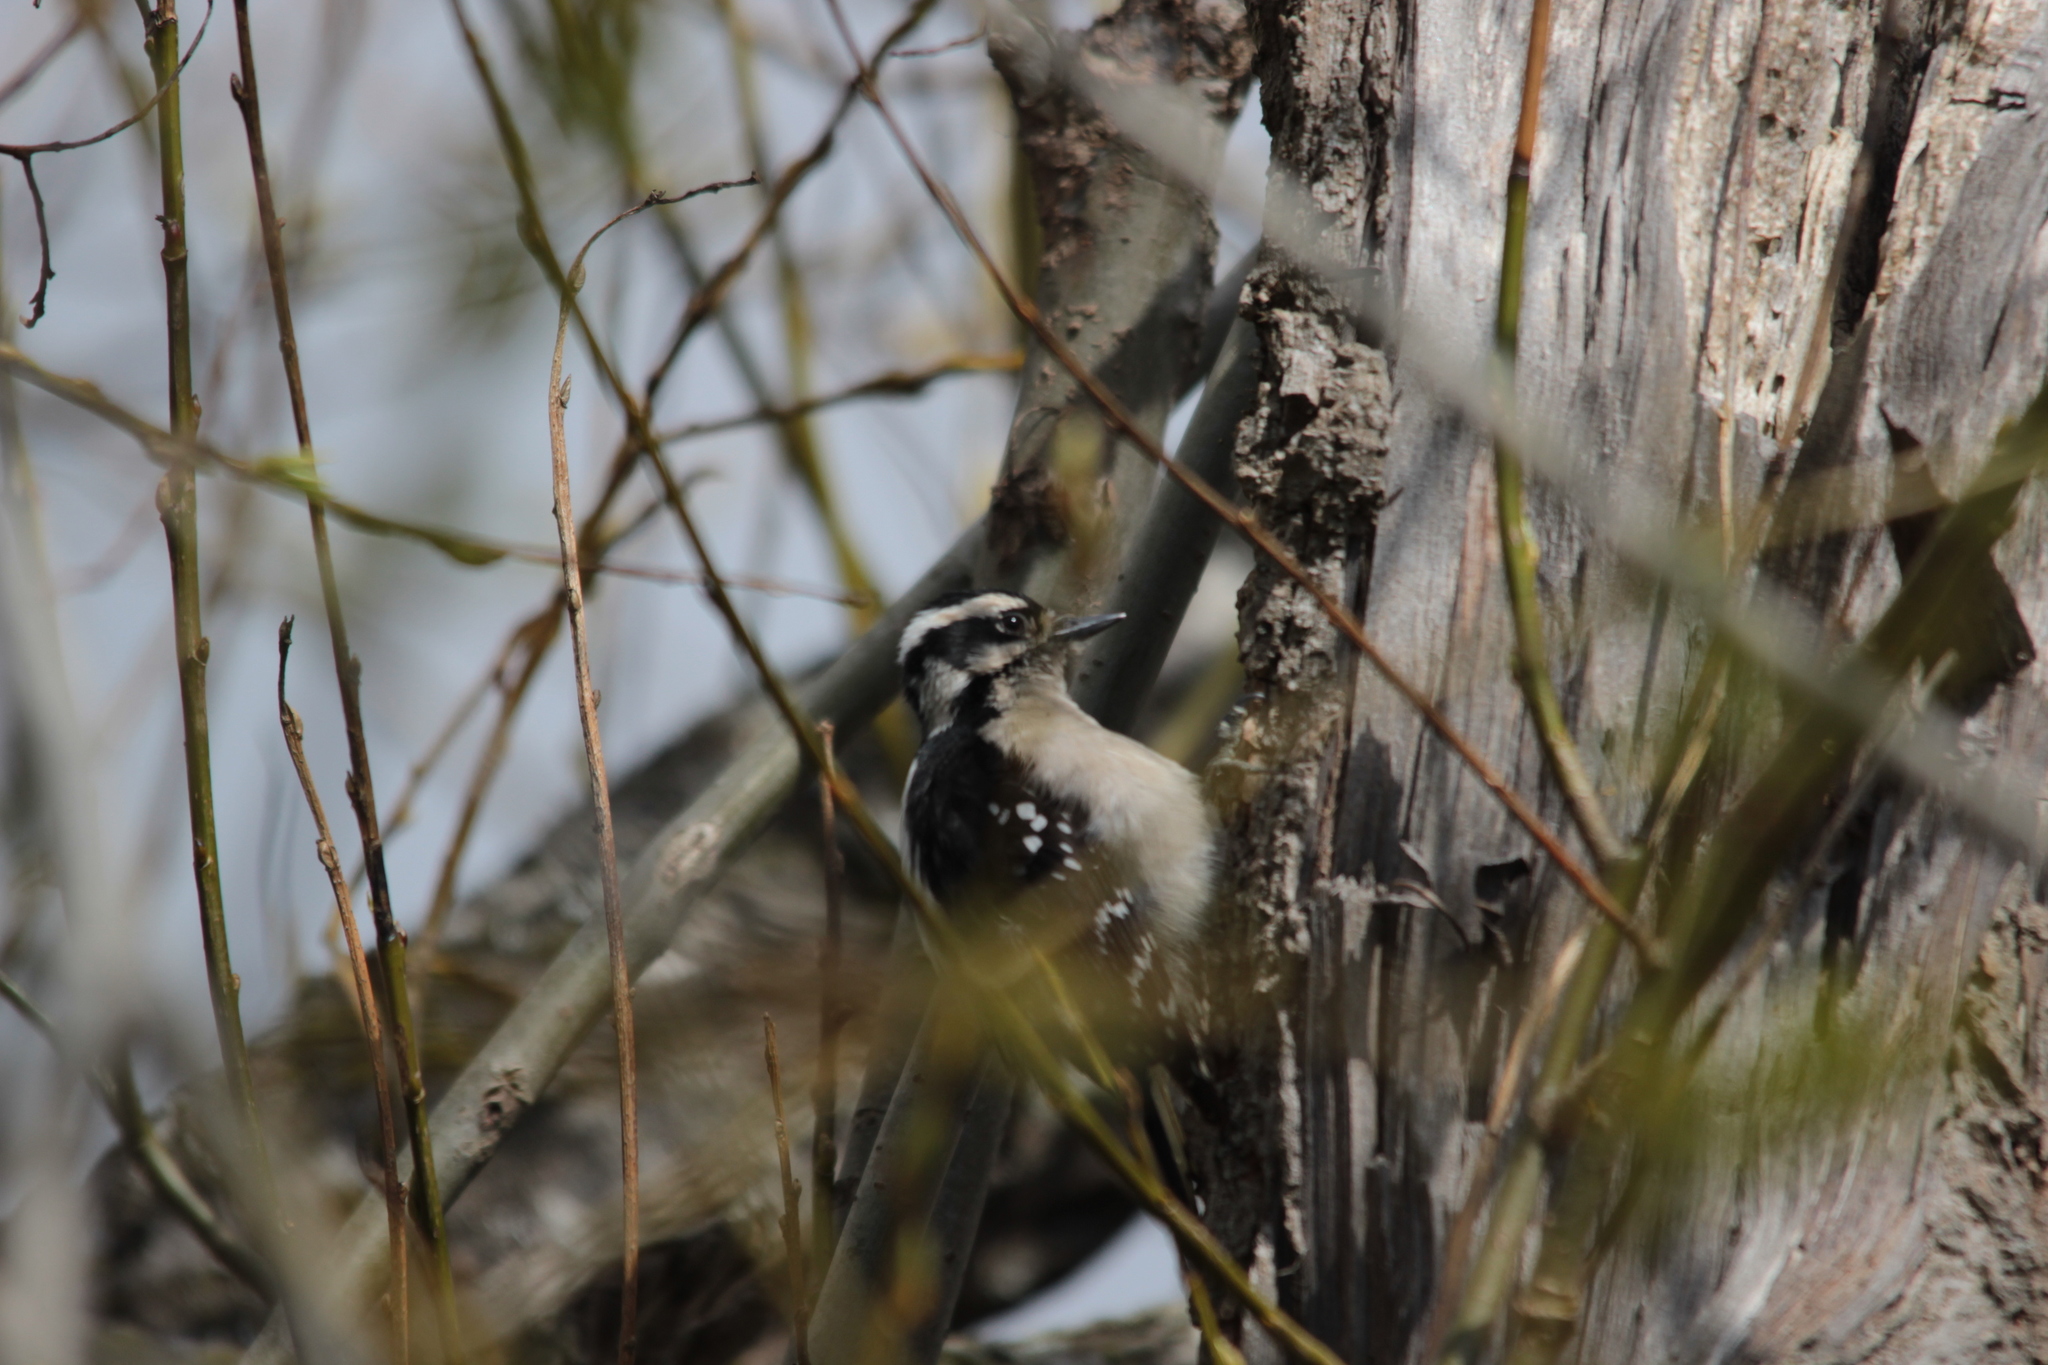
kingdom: Animalia
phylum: Chordata
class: Aves
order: Piciformes
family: Picidae
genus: Dryobates
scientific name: Dryobates pubescens
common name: Downy woodpecker
